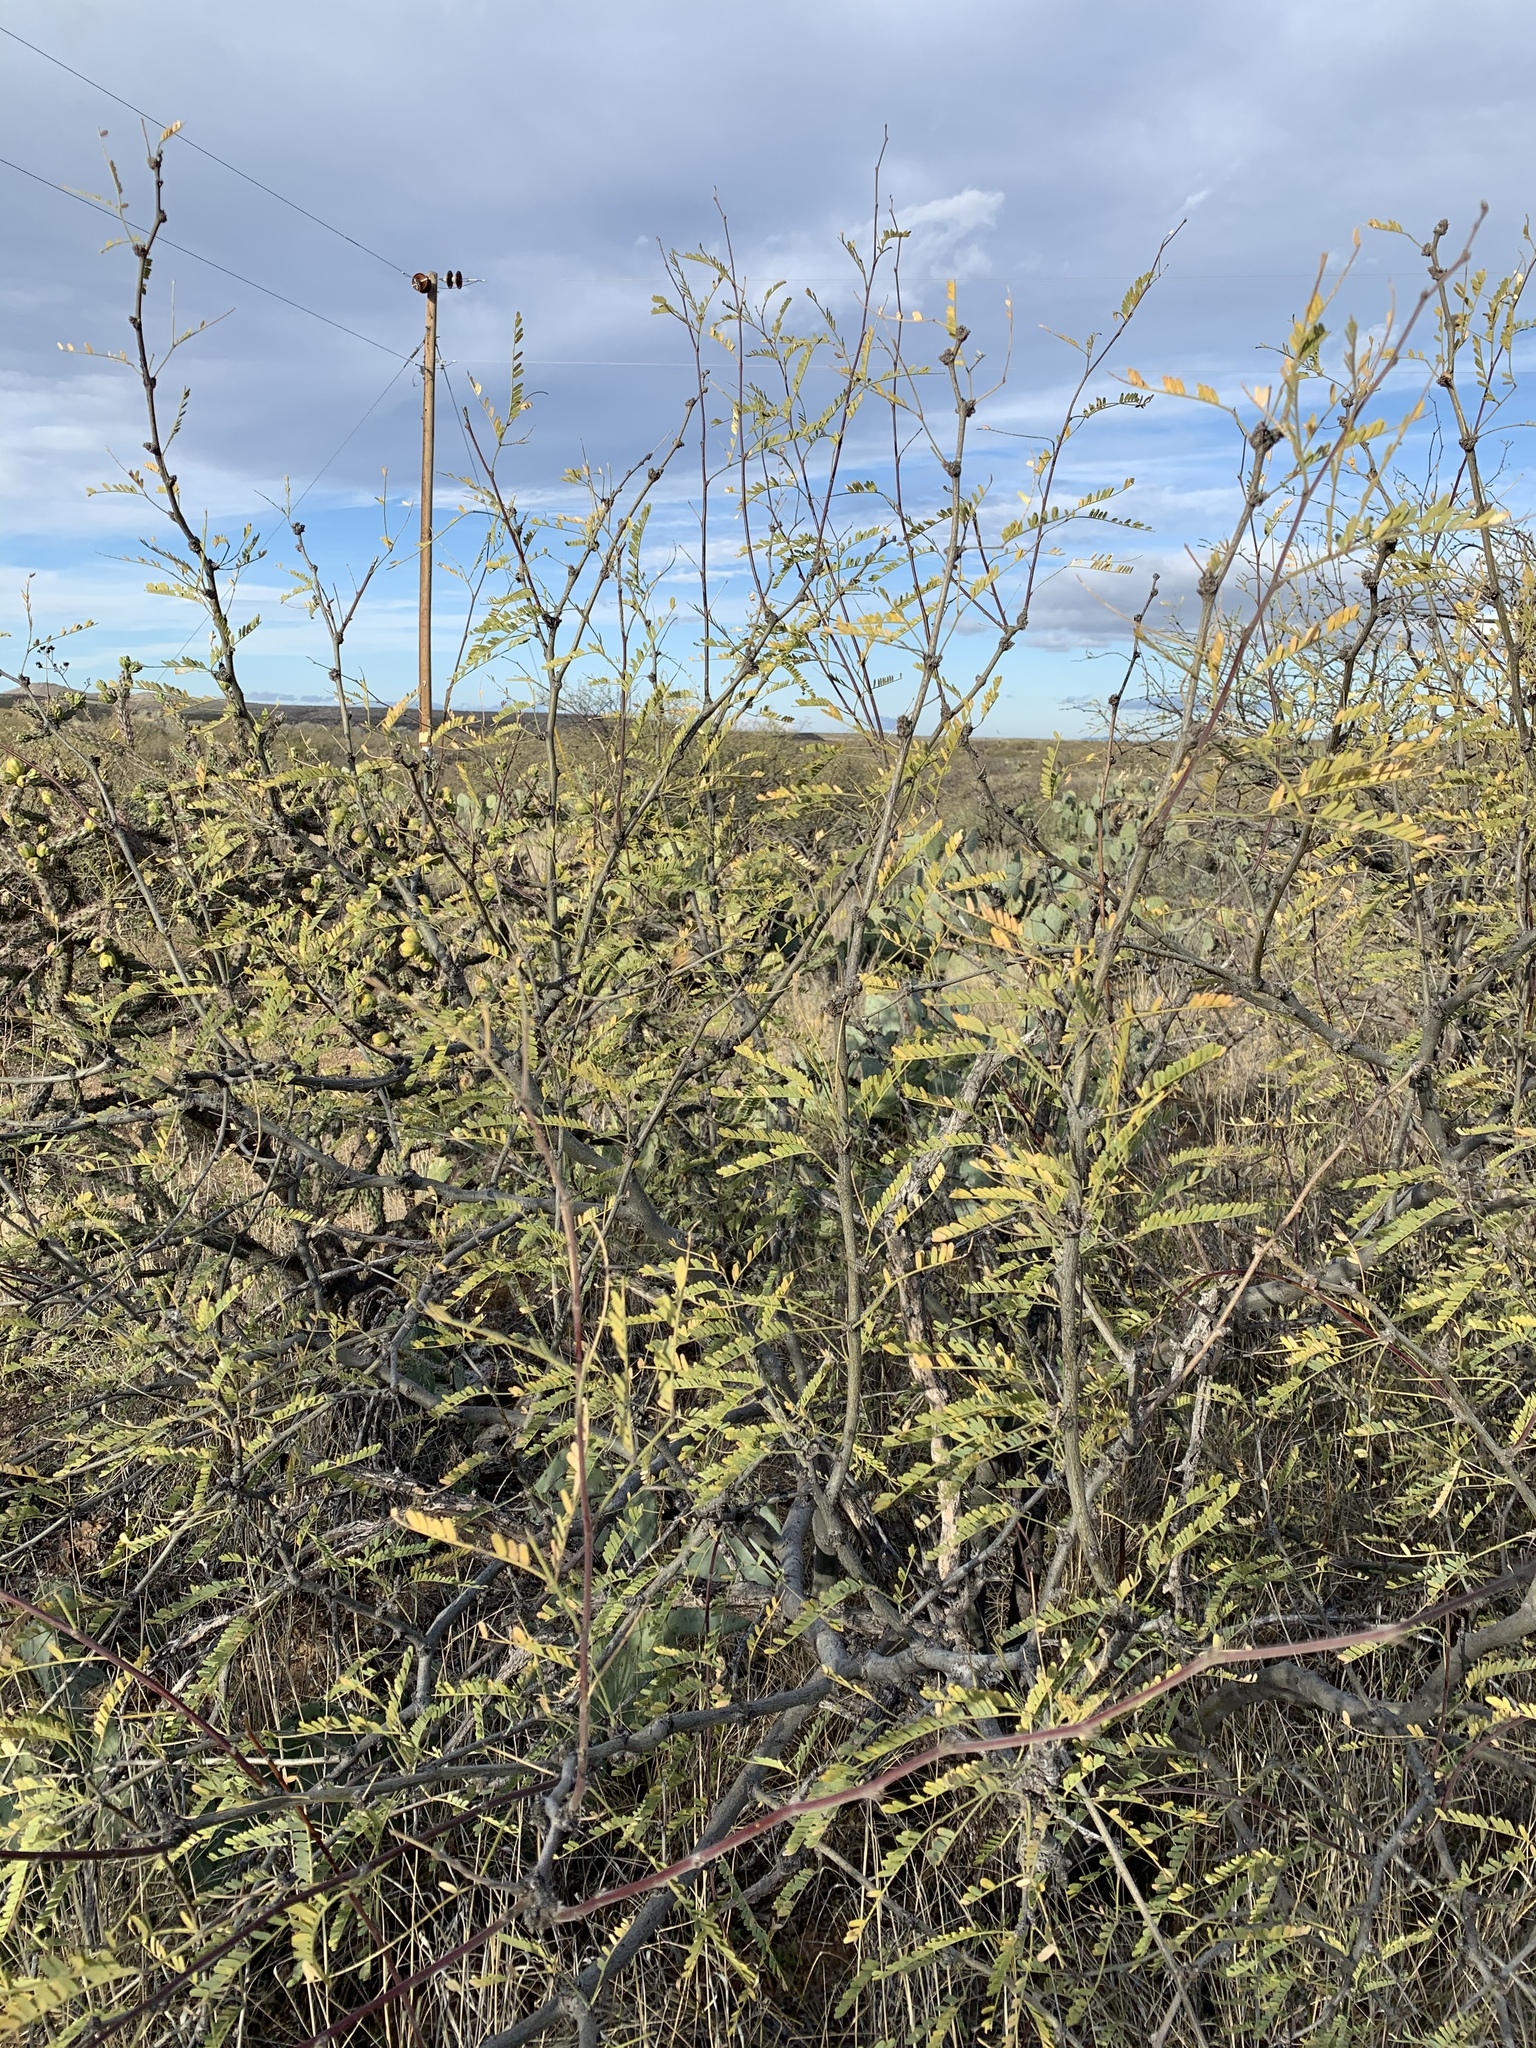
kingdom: Plantae
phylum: Tracheophyta
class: Magnoliopsida
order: Fabales
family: Fabaceae
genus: Prosopis
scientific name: Prosopis velutina
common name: Velvet mesquite
